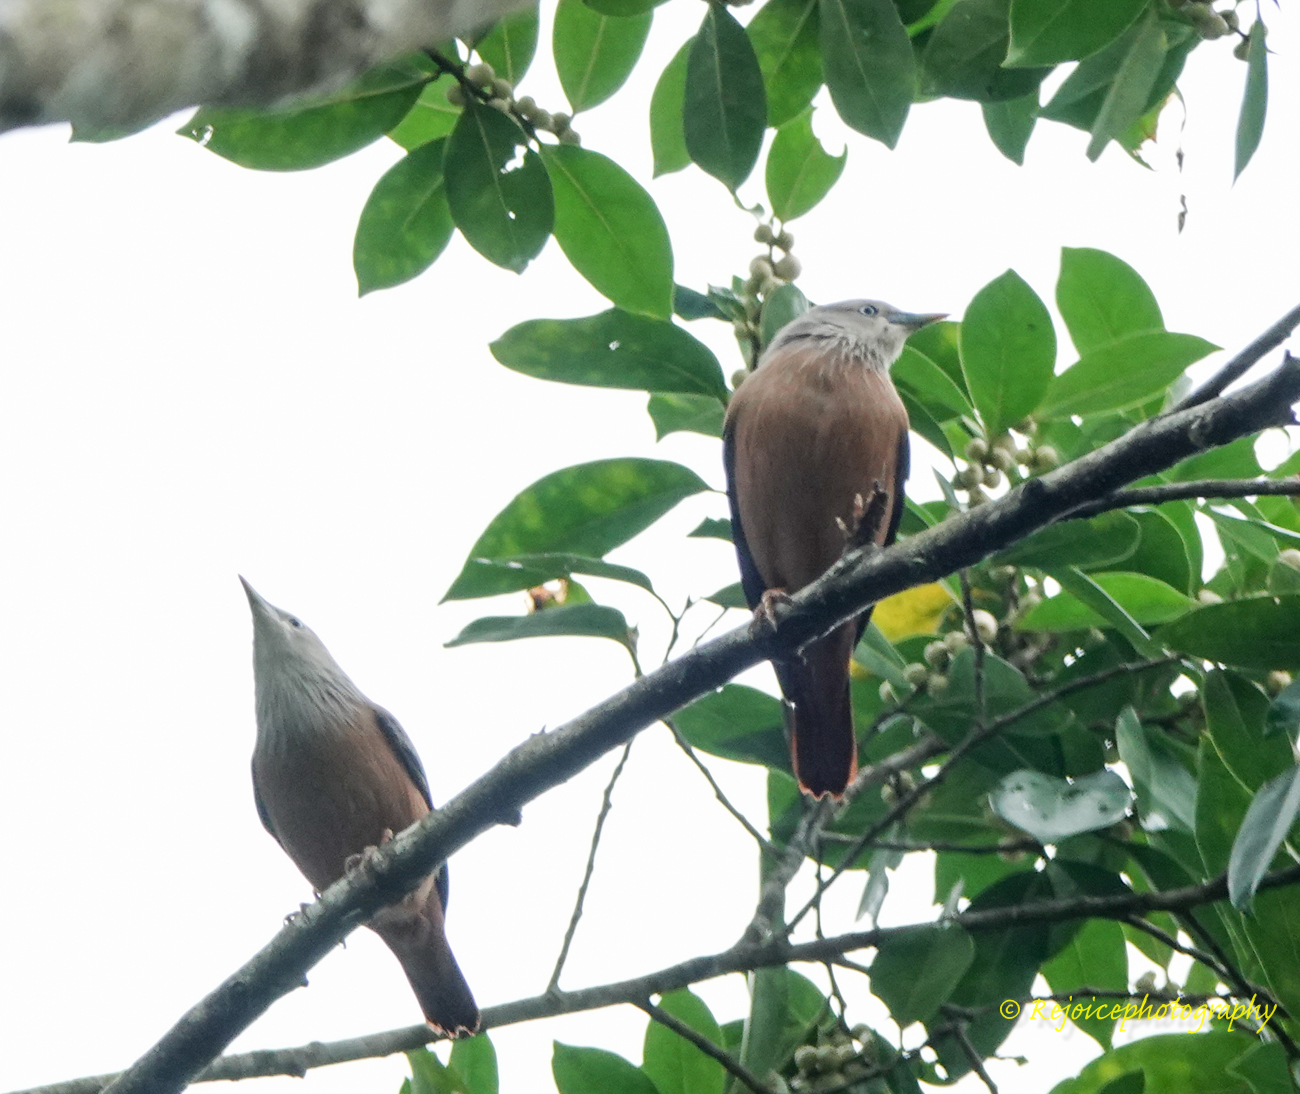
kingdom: Animalia
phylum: Chordata
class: Aves
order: Passeriformes
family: Sturnidae
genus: Sturnia
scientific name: Sturnia malabarica
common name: Chestnut-tailed starling
